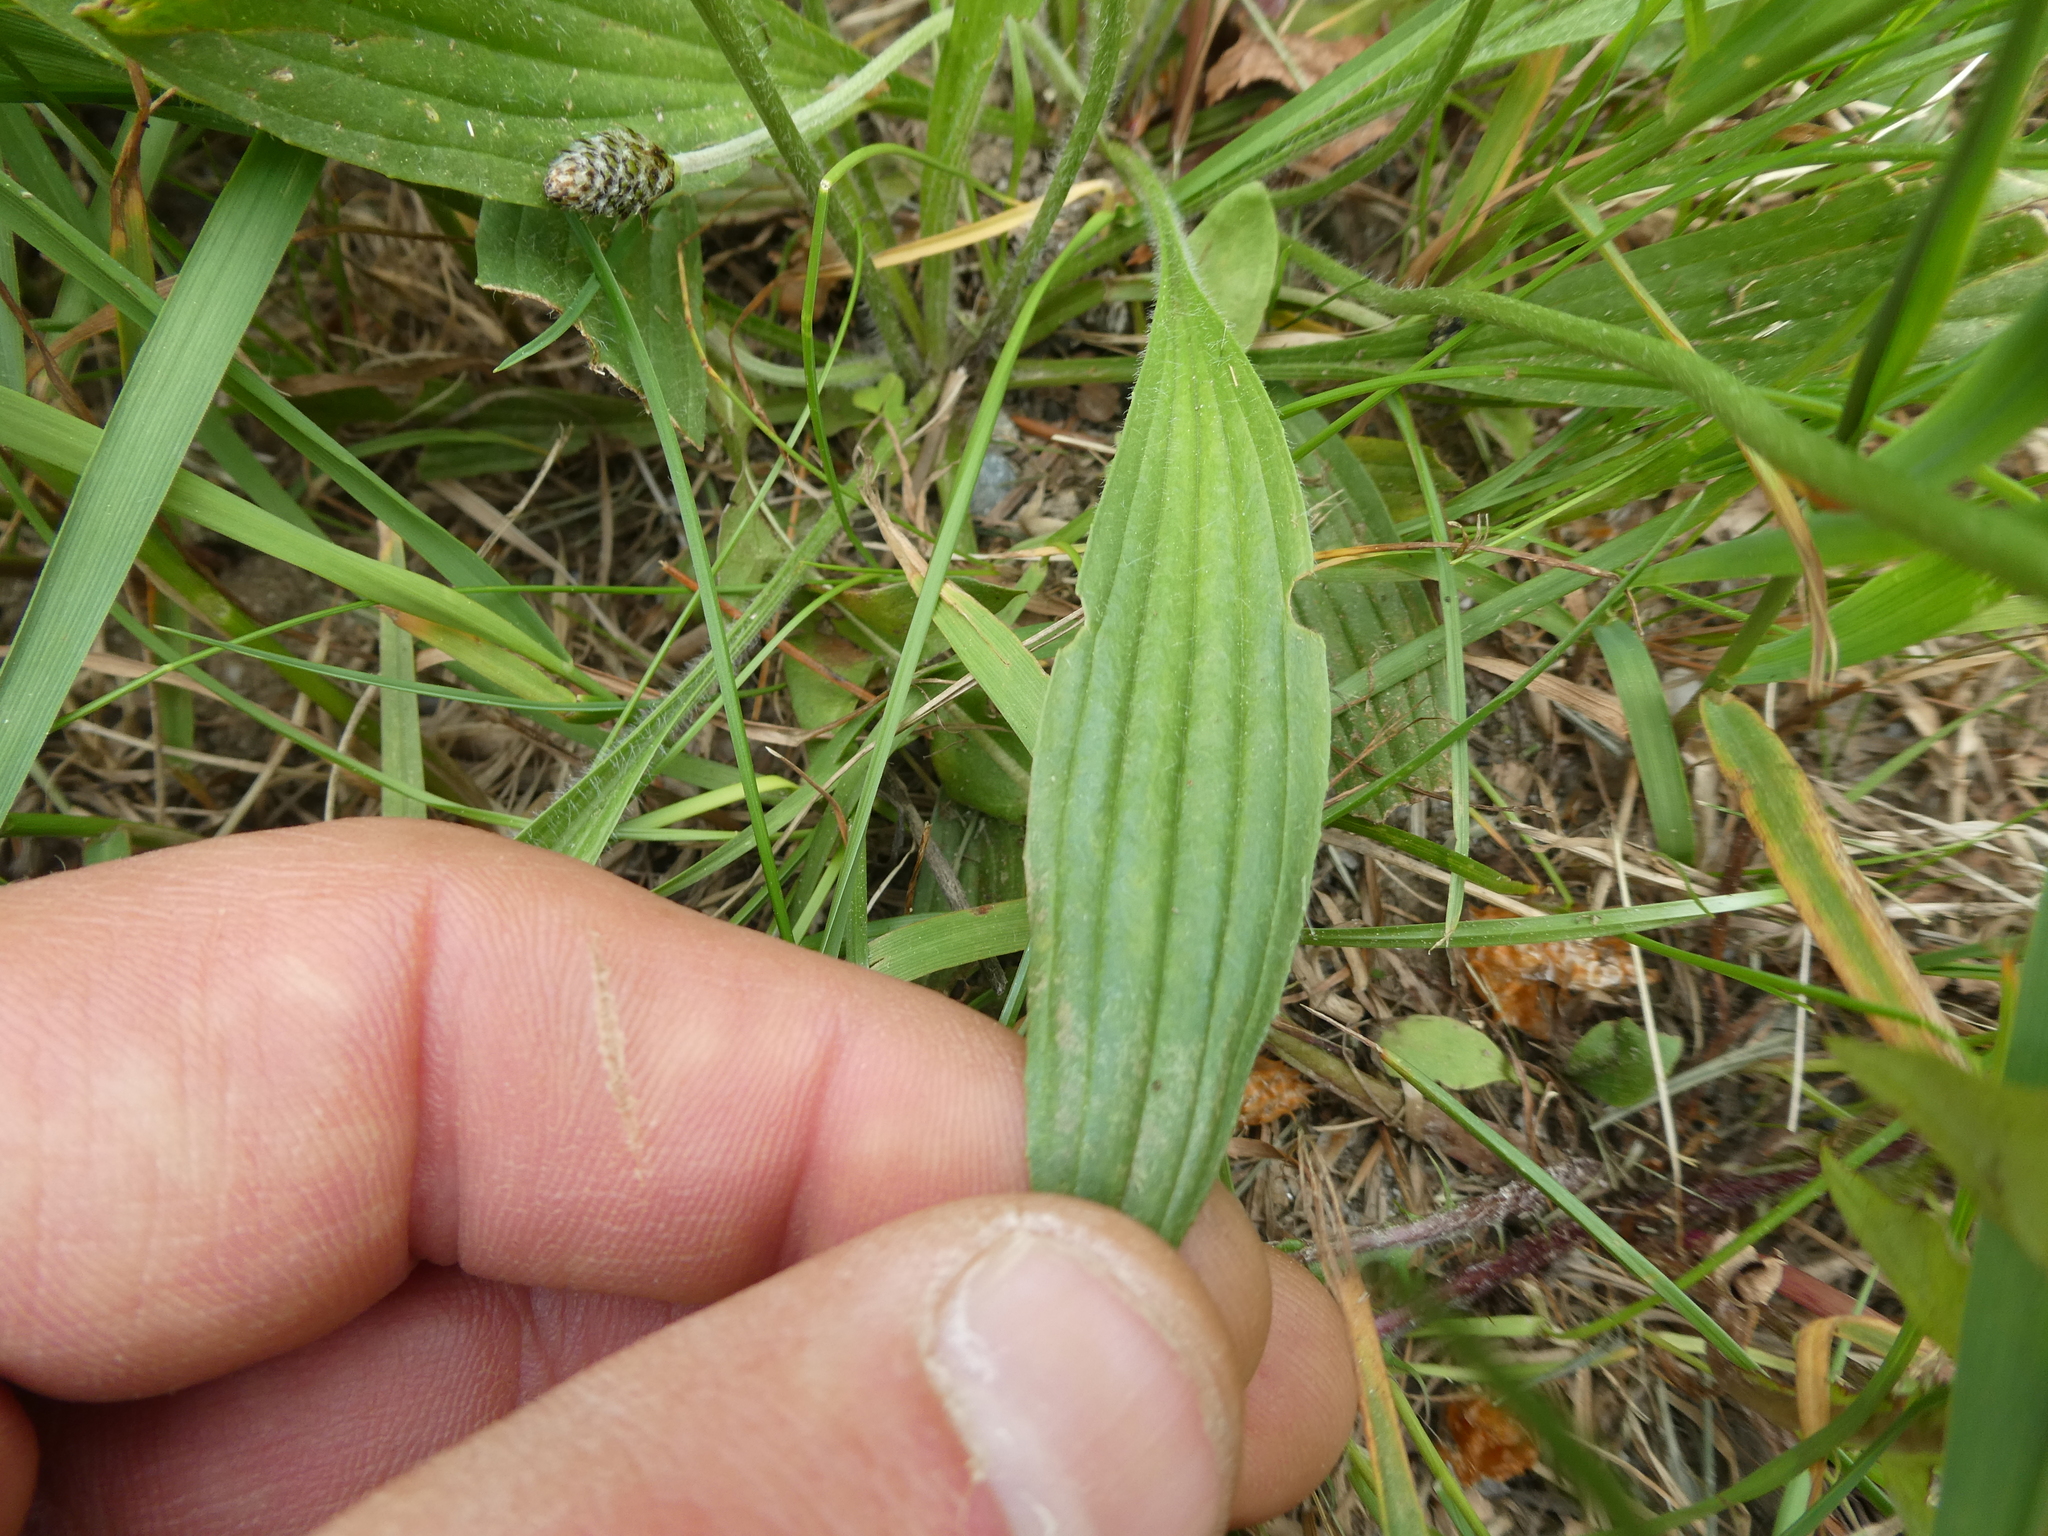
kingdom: Plantae
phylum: Tracheophyta
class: Magnoliopsida
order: Lamiales
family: Plantaginaceae
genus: Plantago
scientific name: Plantago lanceolata
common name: Ribwort plantain
